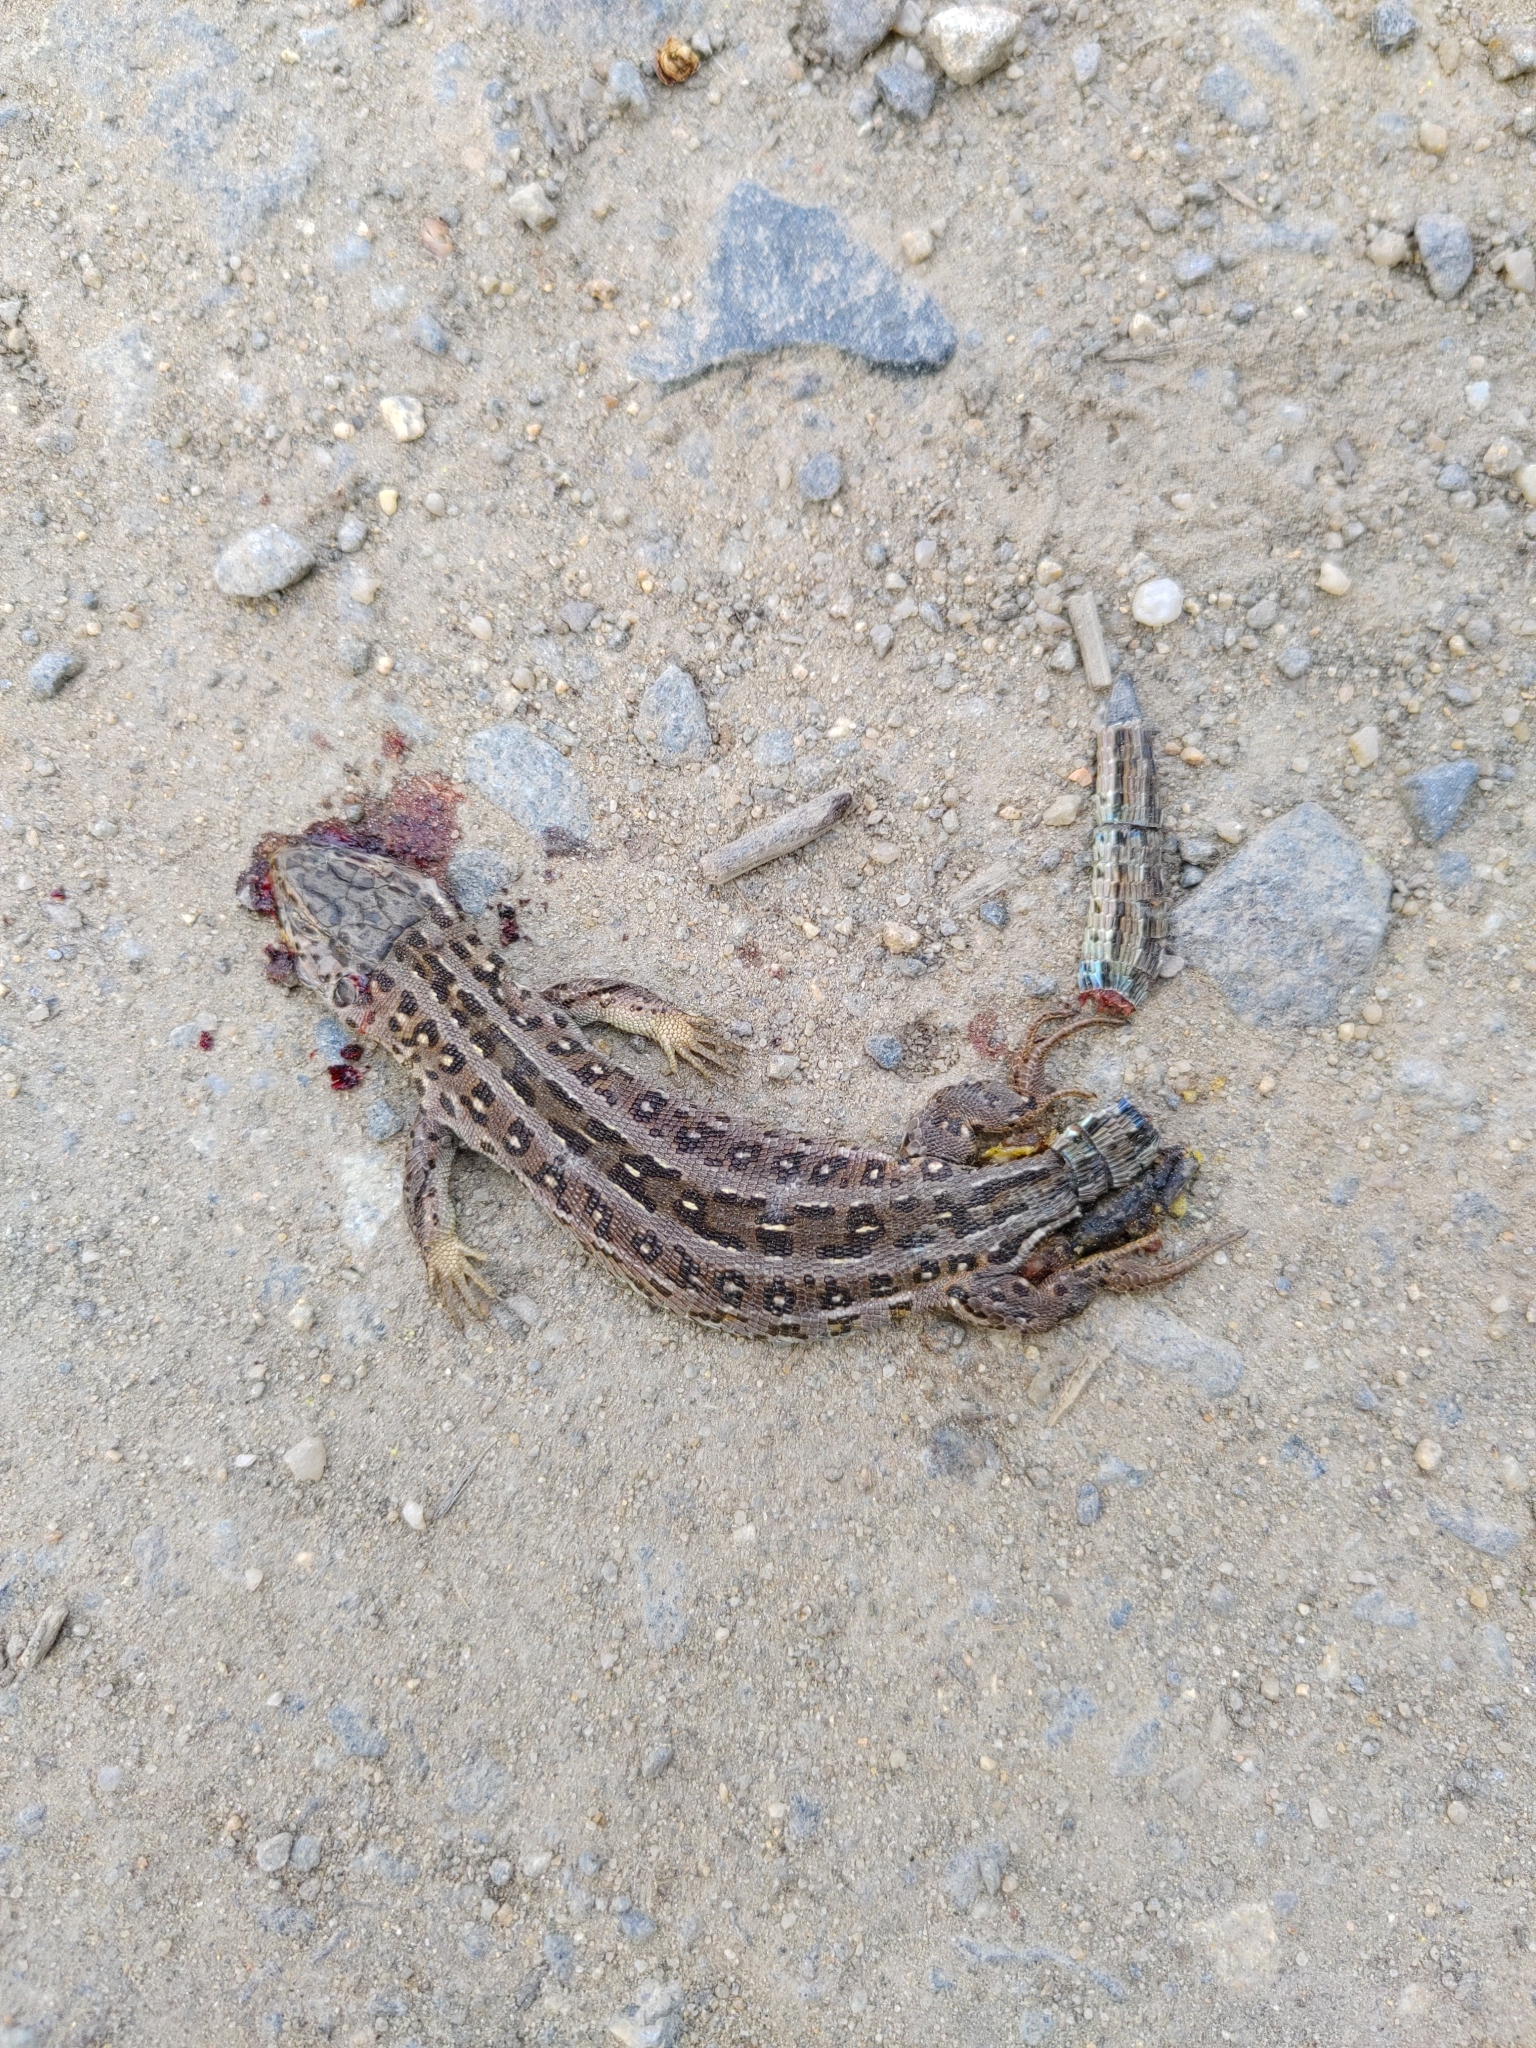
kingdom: Animalia
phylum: Chordata
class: Squamata
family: Lacertidae
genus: Lacerta
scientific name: Lacerta agilis
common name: Sand lizard
